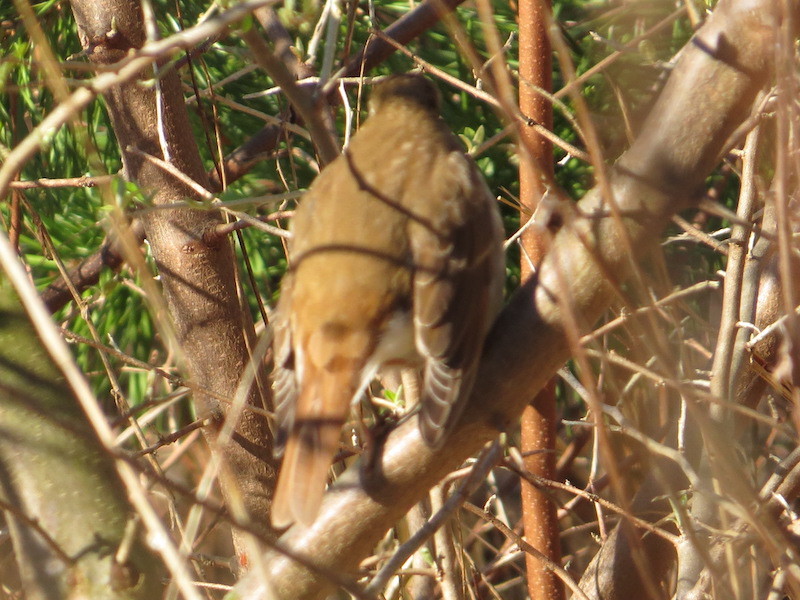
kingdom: Animalia
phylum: Chordata
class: Aves
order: Passeriformes
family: Turdidae
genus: Catharus
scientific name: Catharus guttatus
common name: Hermit thrush
